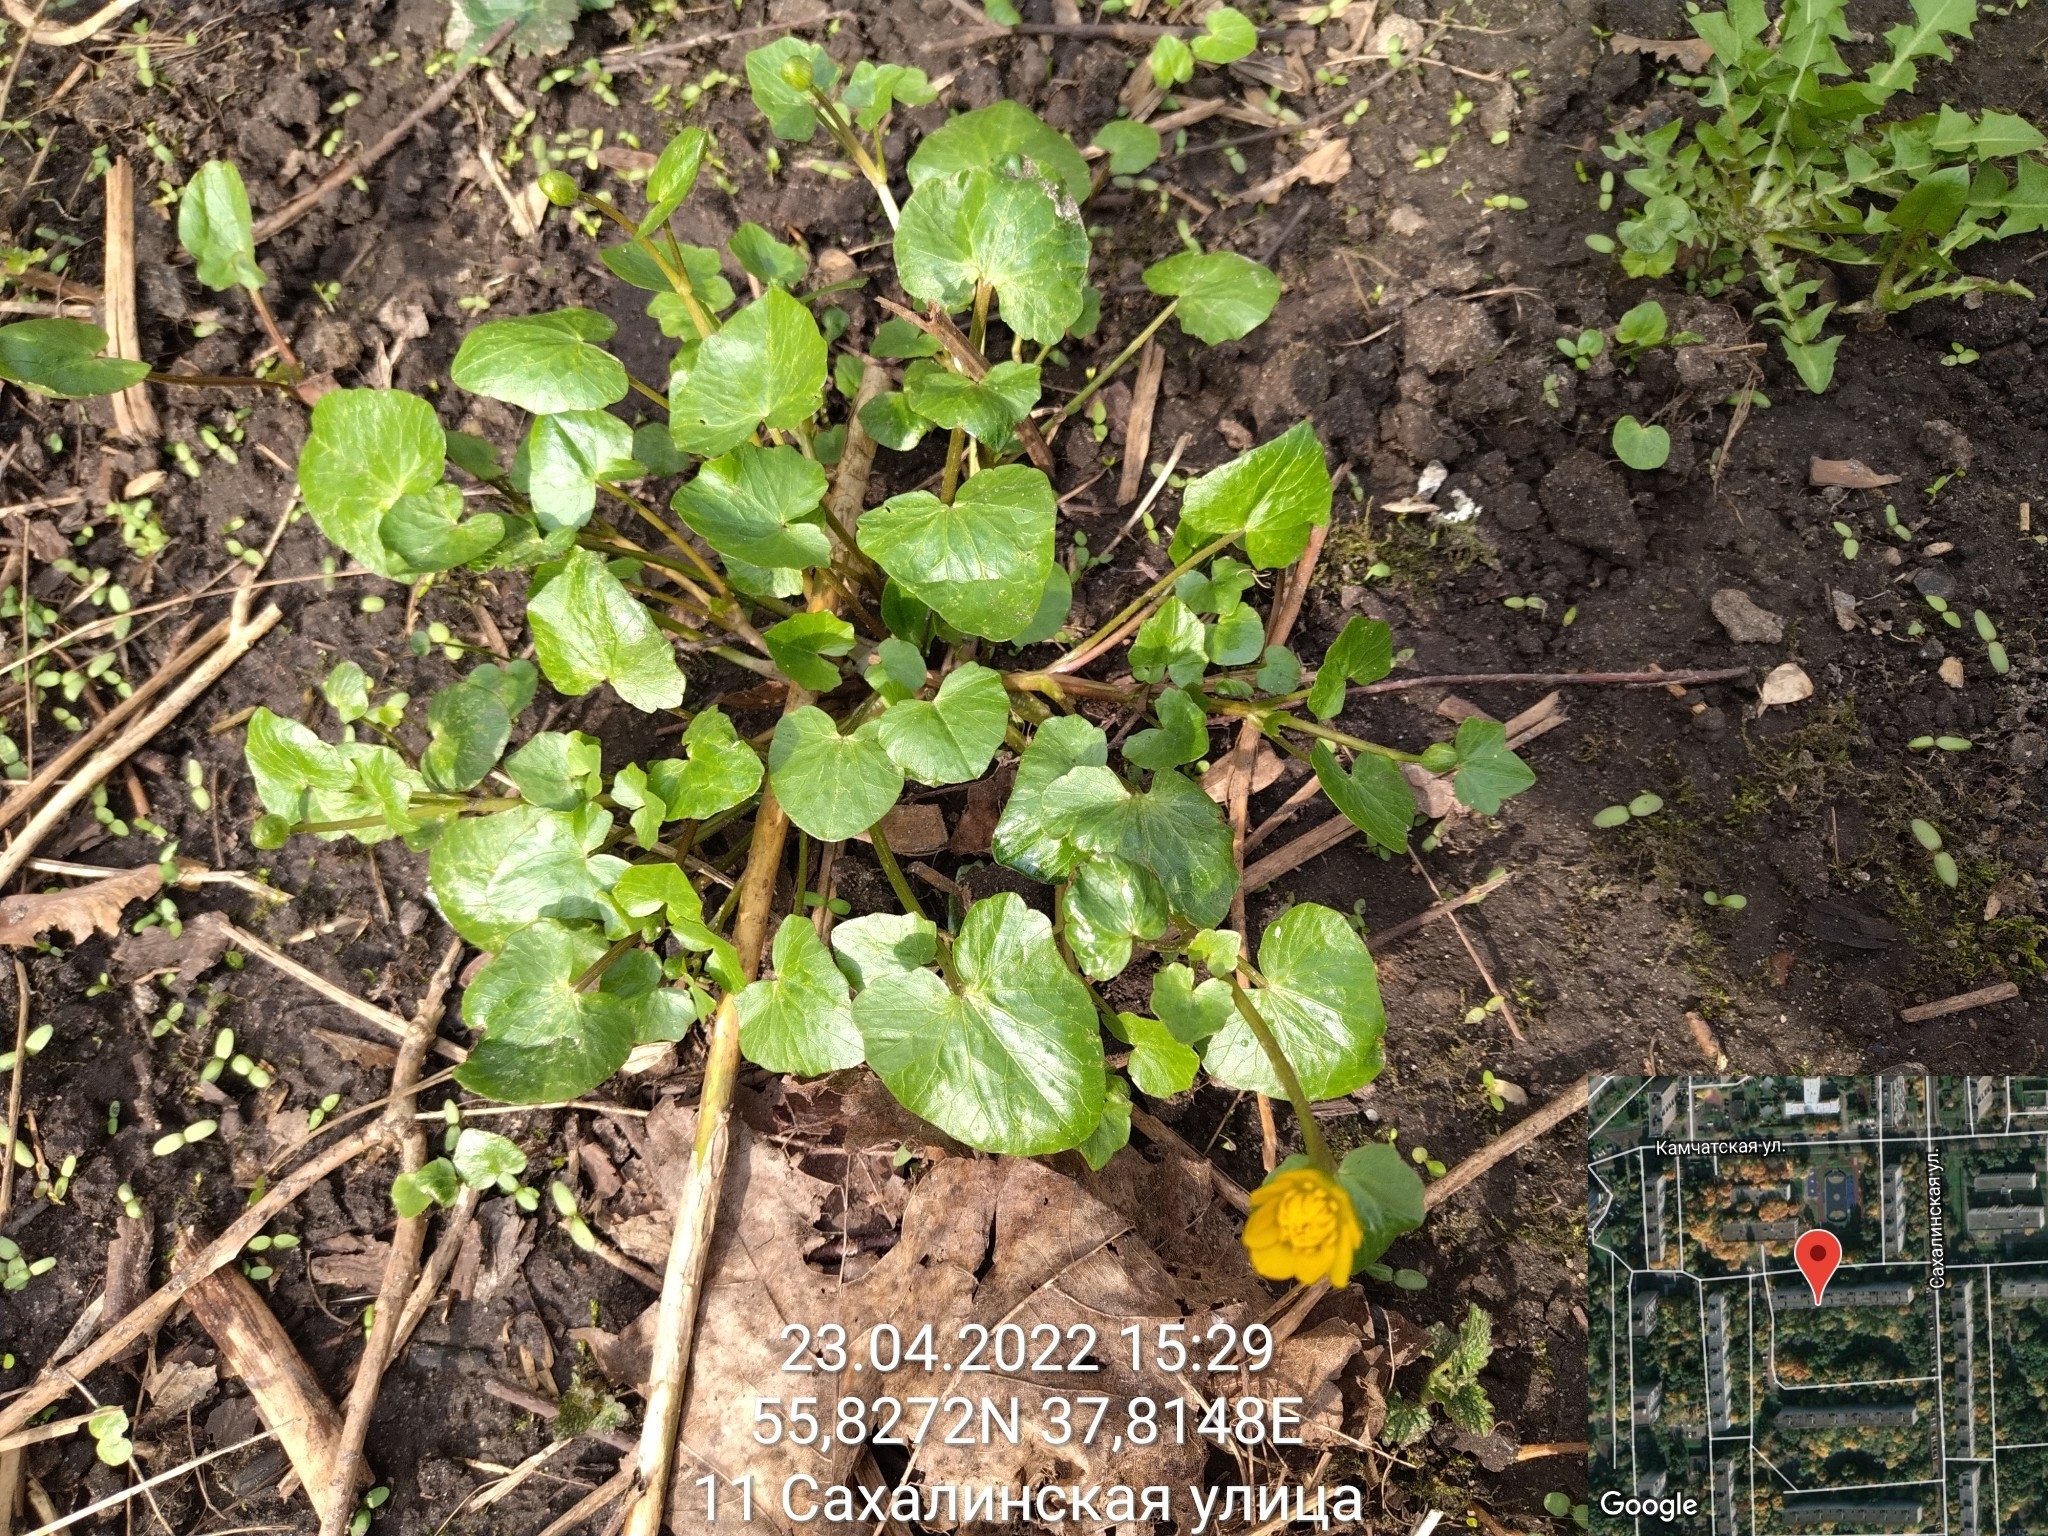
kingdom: Plantae
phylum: Tracheophyta
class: Magnoliopsida
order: Ranunculales
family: Ranunculaceae
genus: Ficaria
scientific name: Ficaria verna
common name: Lesser celandine
